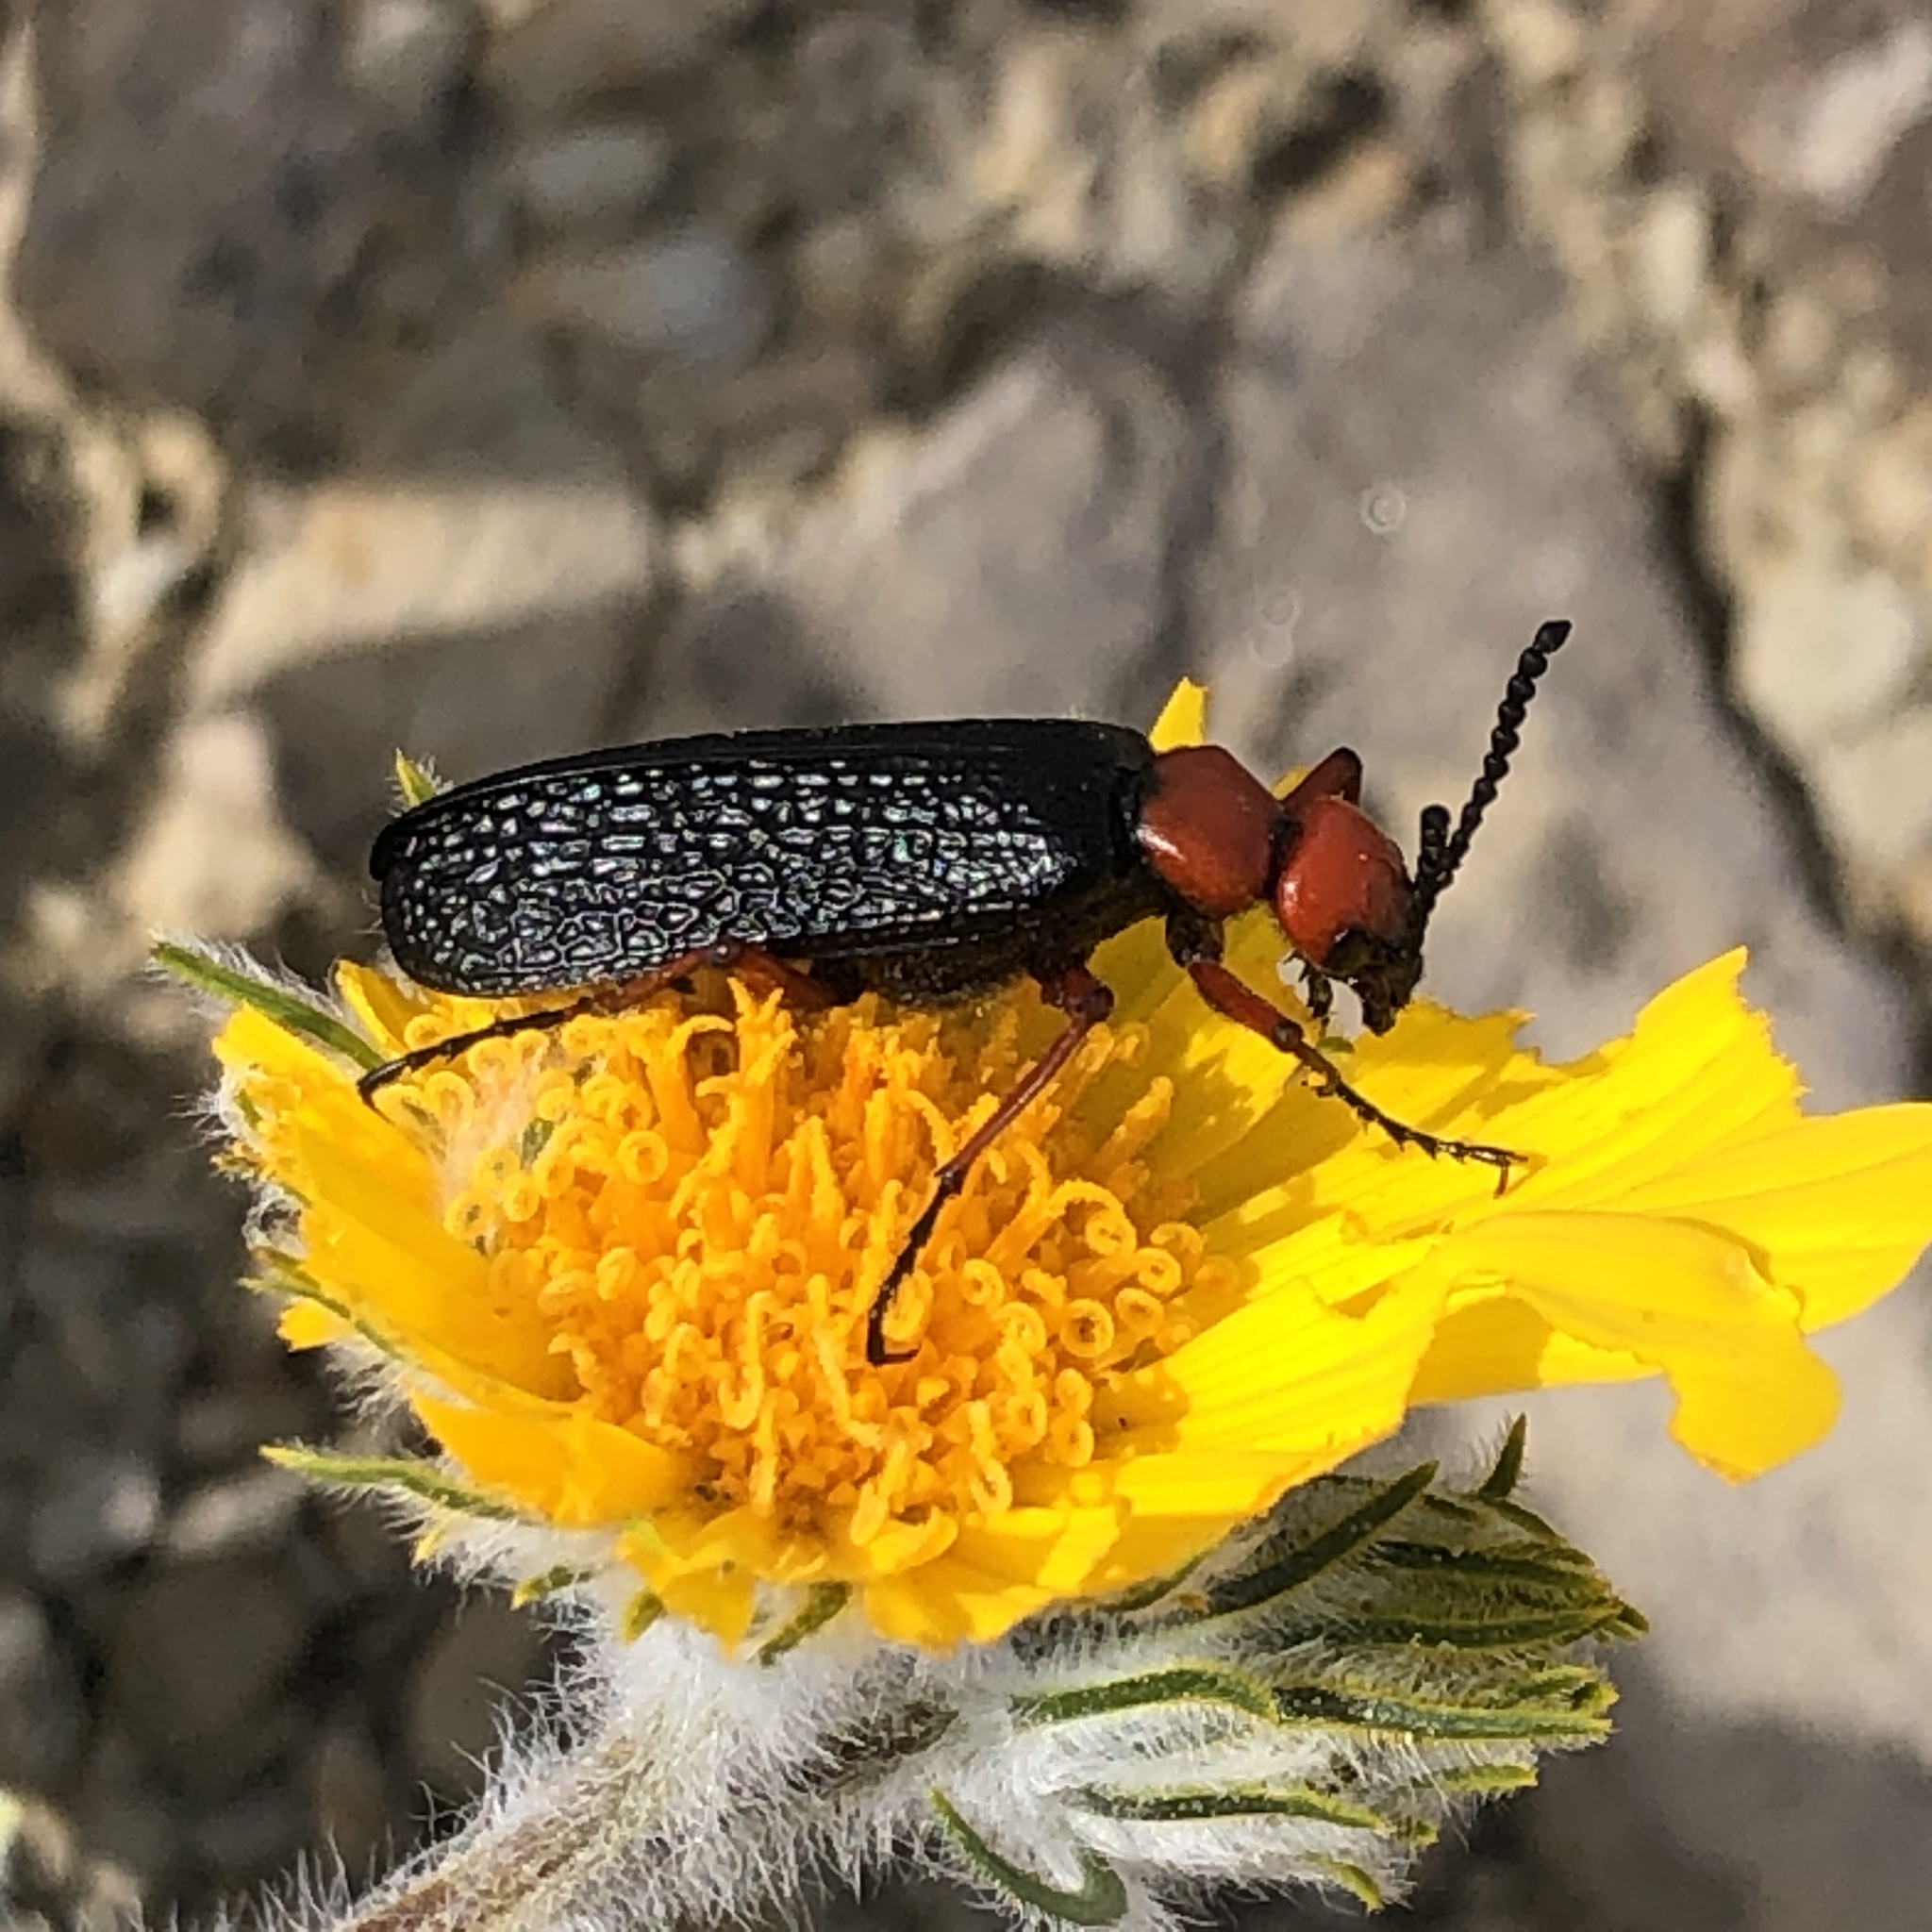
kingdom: Animalia
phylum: Arthropoda
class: Insecta
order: Coleoptera
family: Meloidae
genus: Lytta
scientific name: Lytta magister
